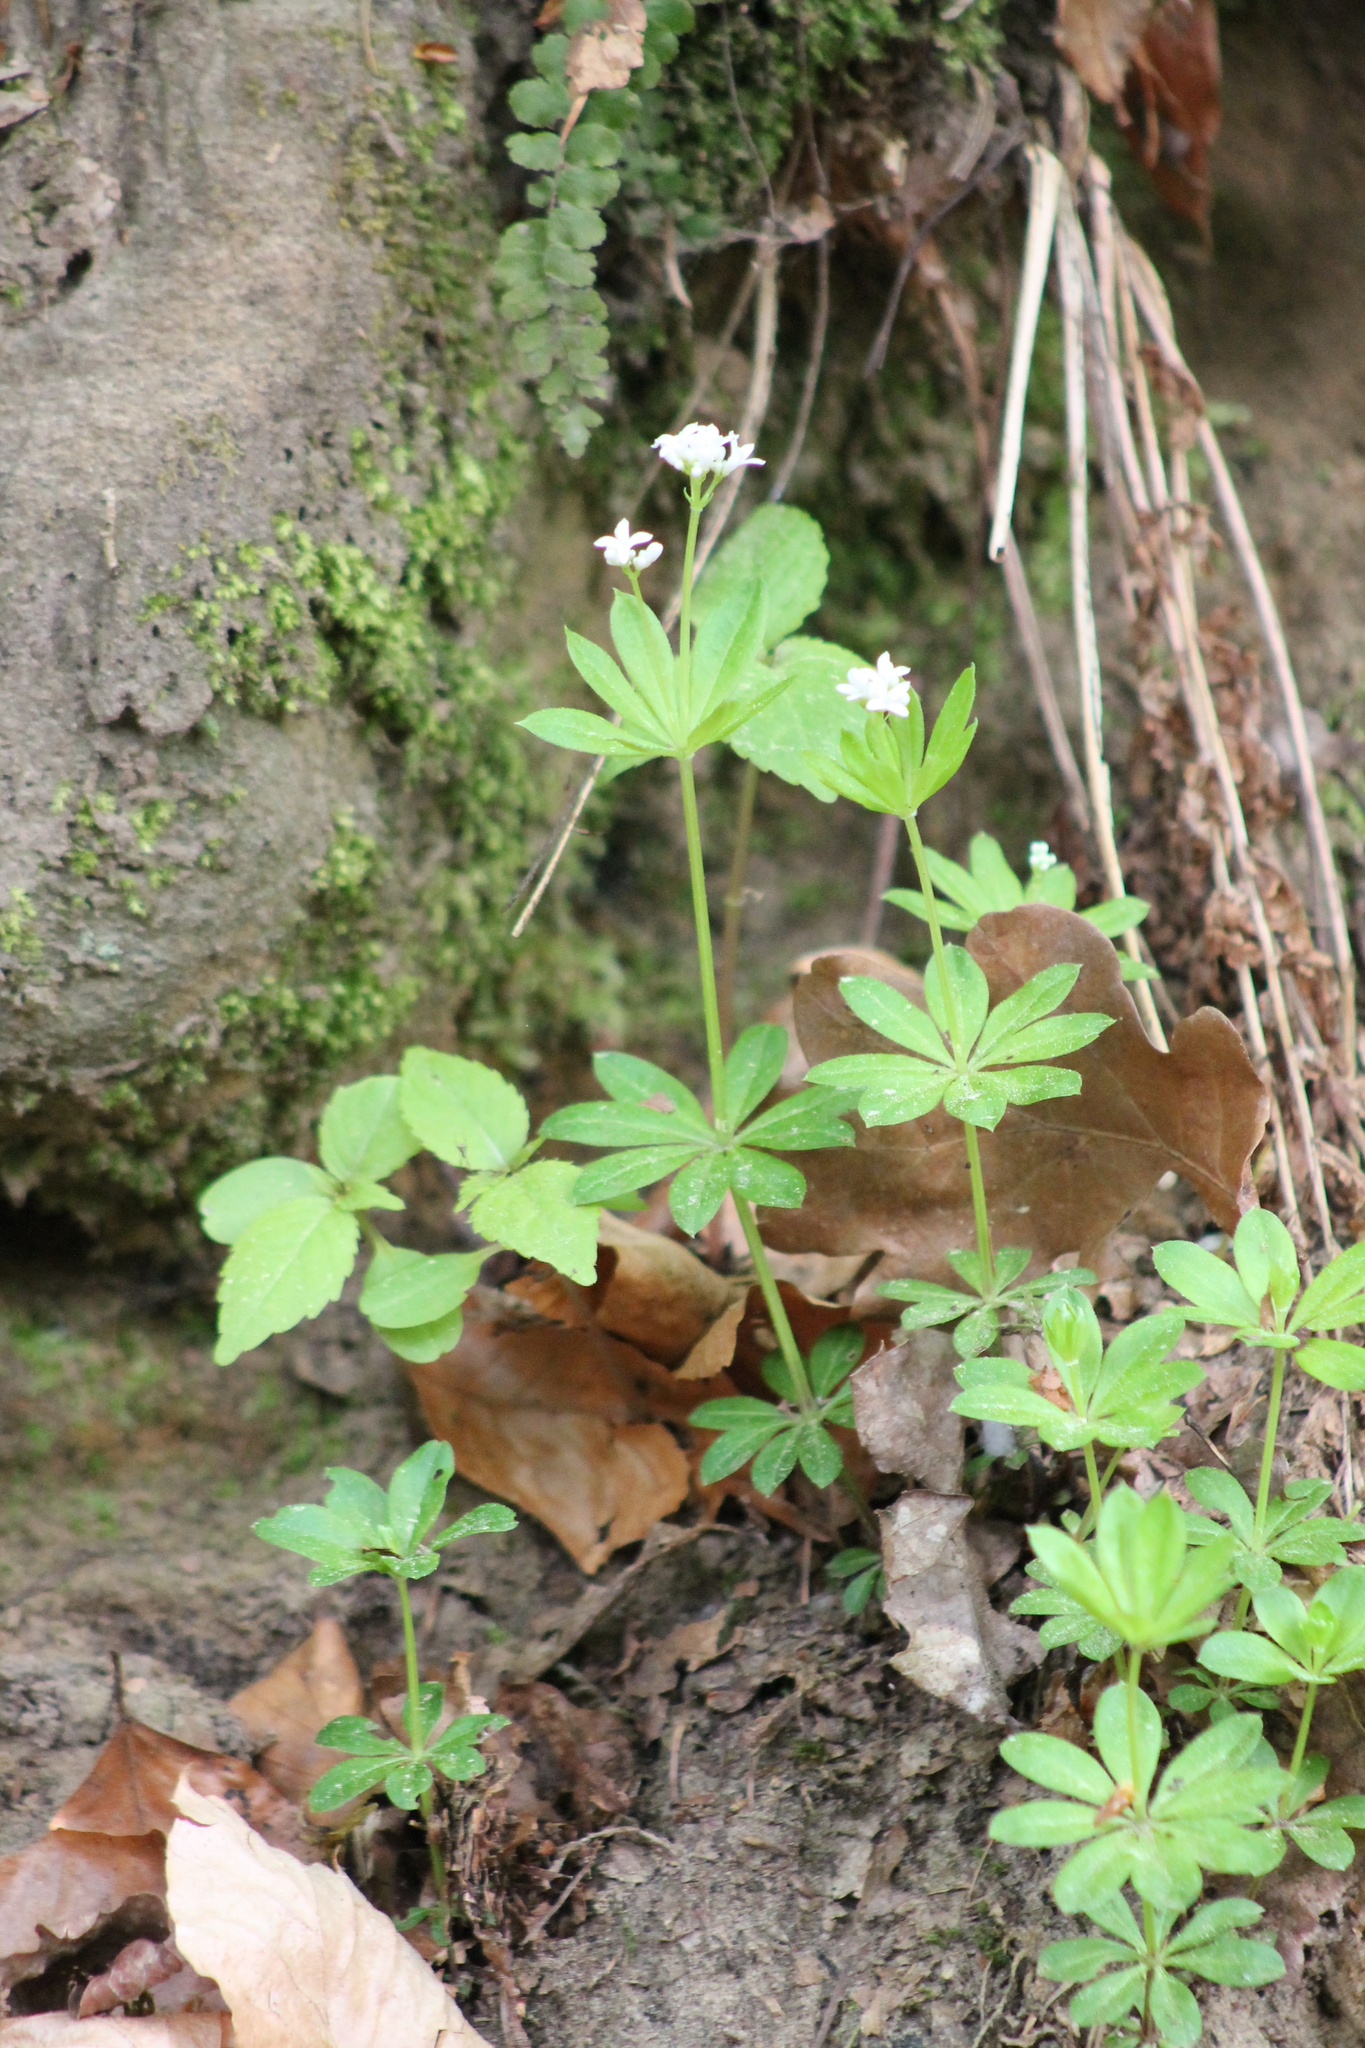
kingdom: Plantae
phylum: Tracheophyta
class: Magnoliopsida
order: Gentianales
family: Rubiaceae
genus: Galium
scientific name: Galium odoratum
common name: Sweet woodruff
